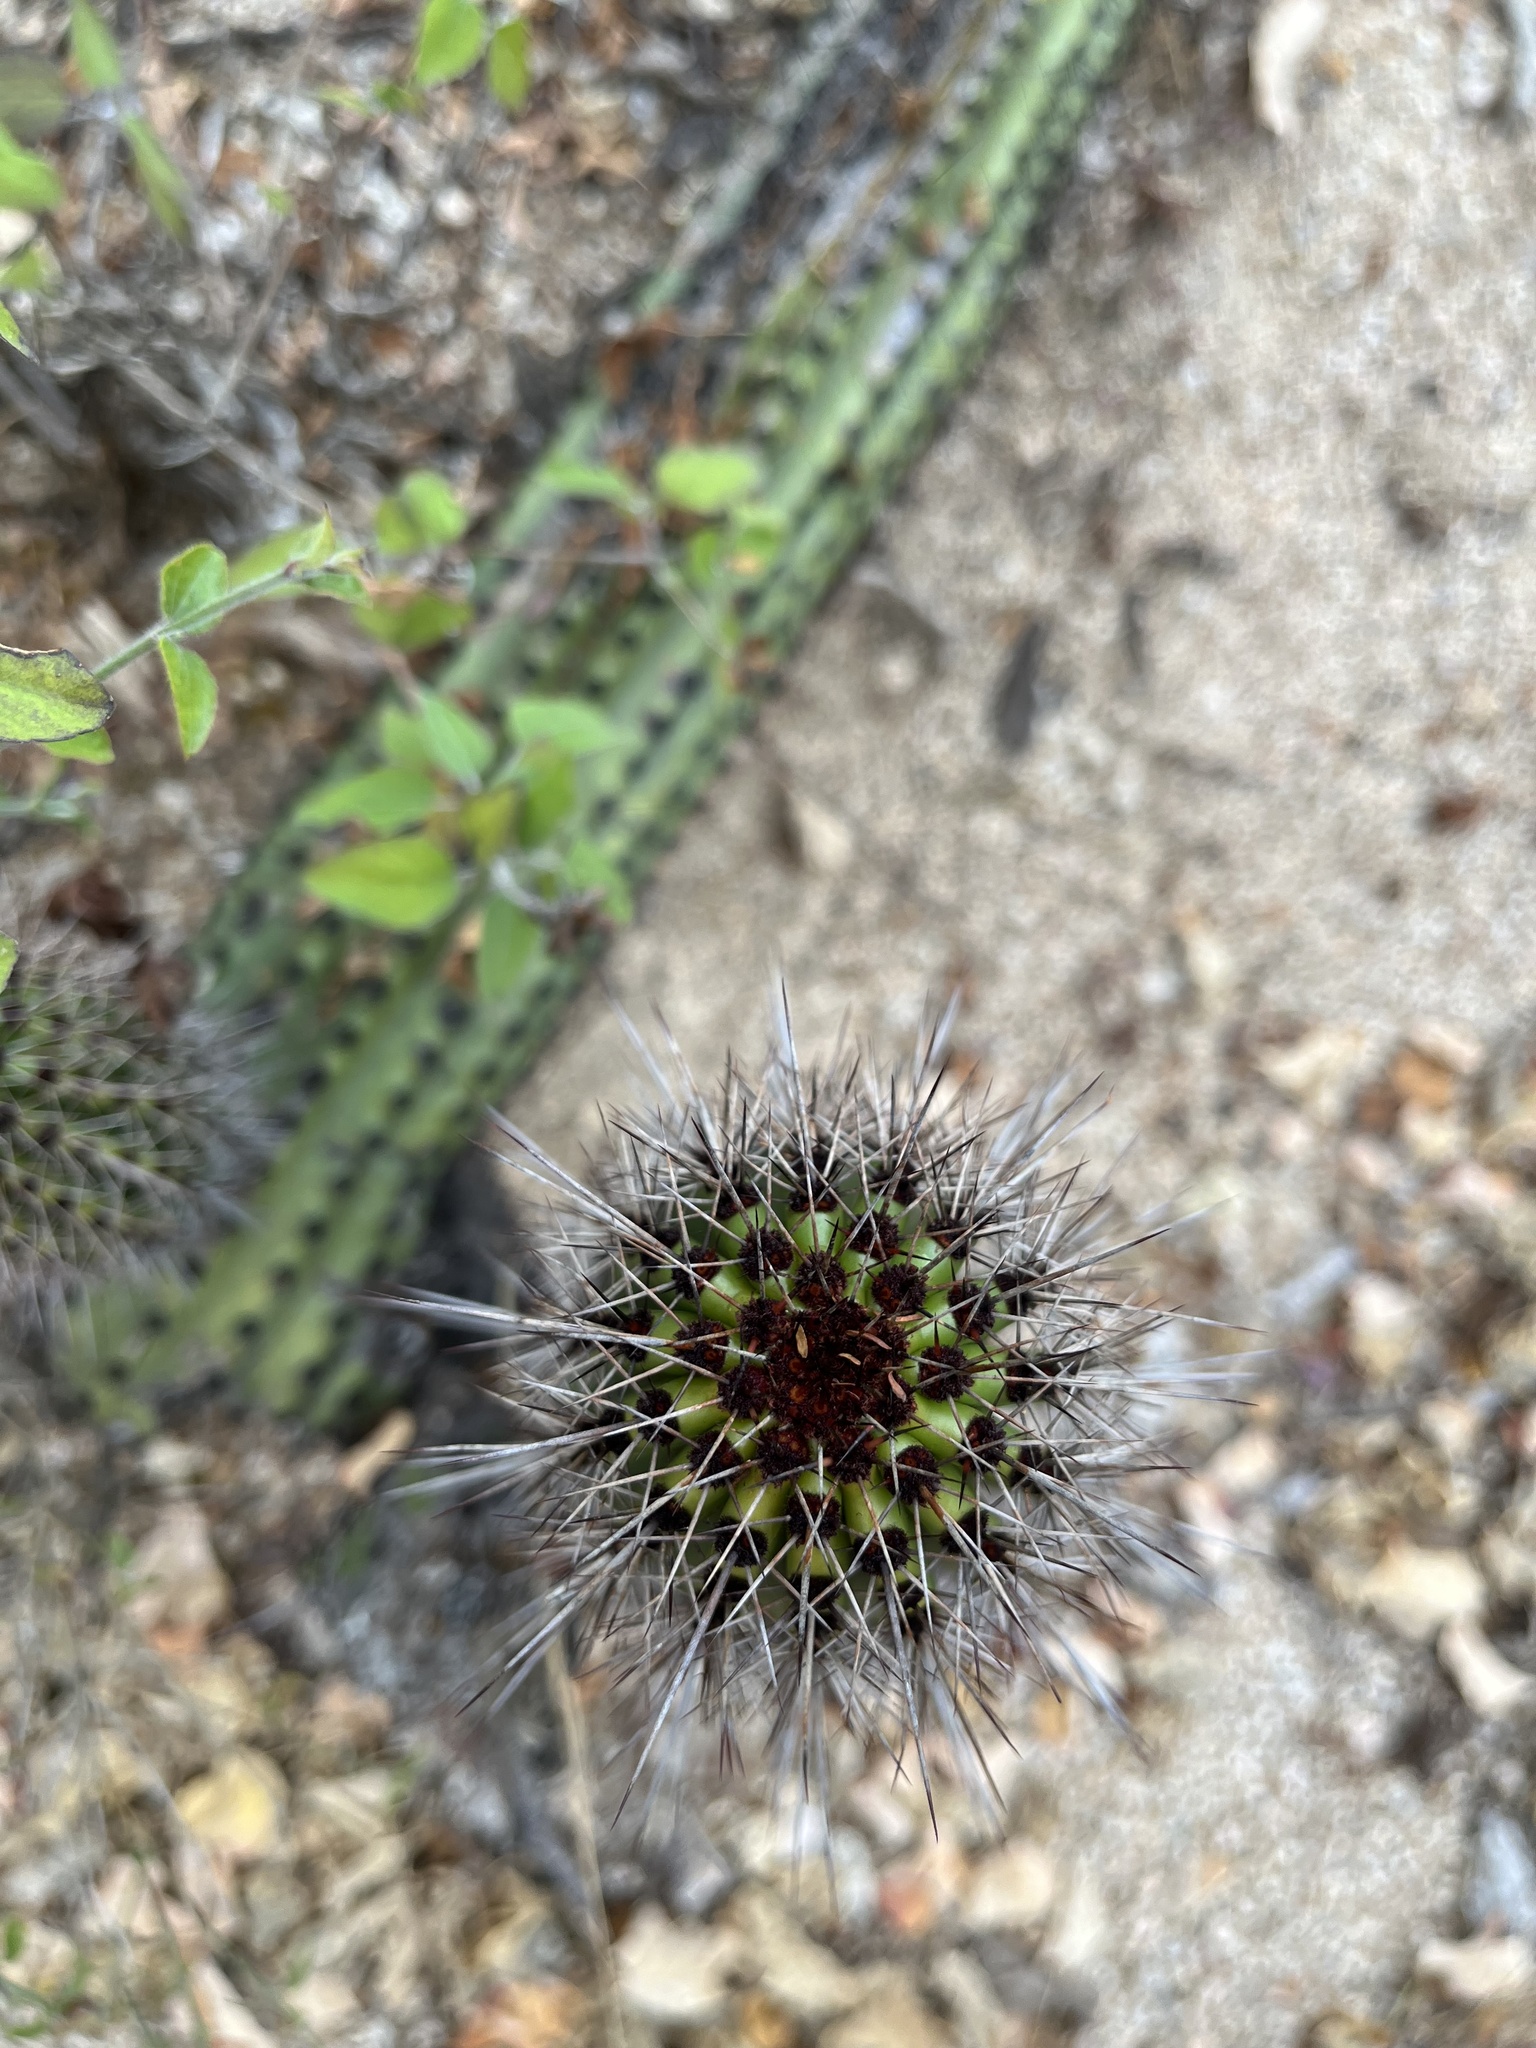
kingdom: Plantae
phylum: Tracheophyta
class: Magnoliopsida
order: Caryophyllales
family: Cactaceae
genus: Stenocereus
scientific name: Stenocereus thurberi
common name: Organ pipe cactus
